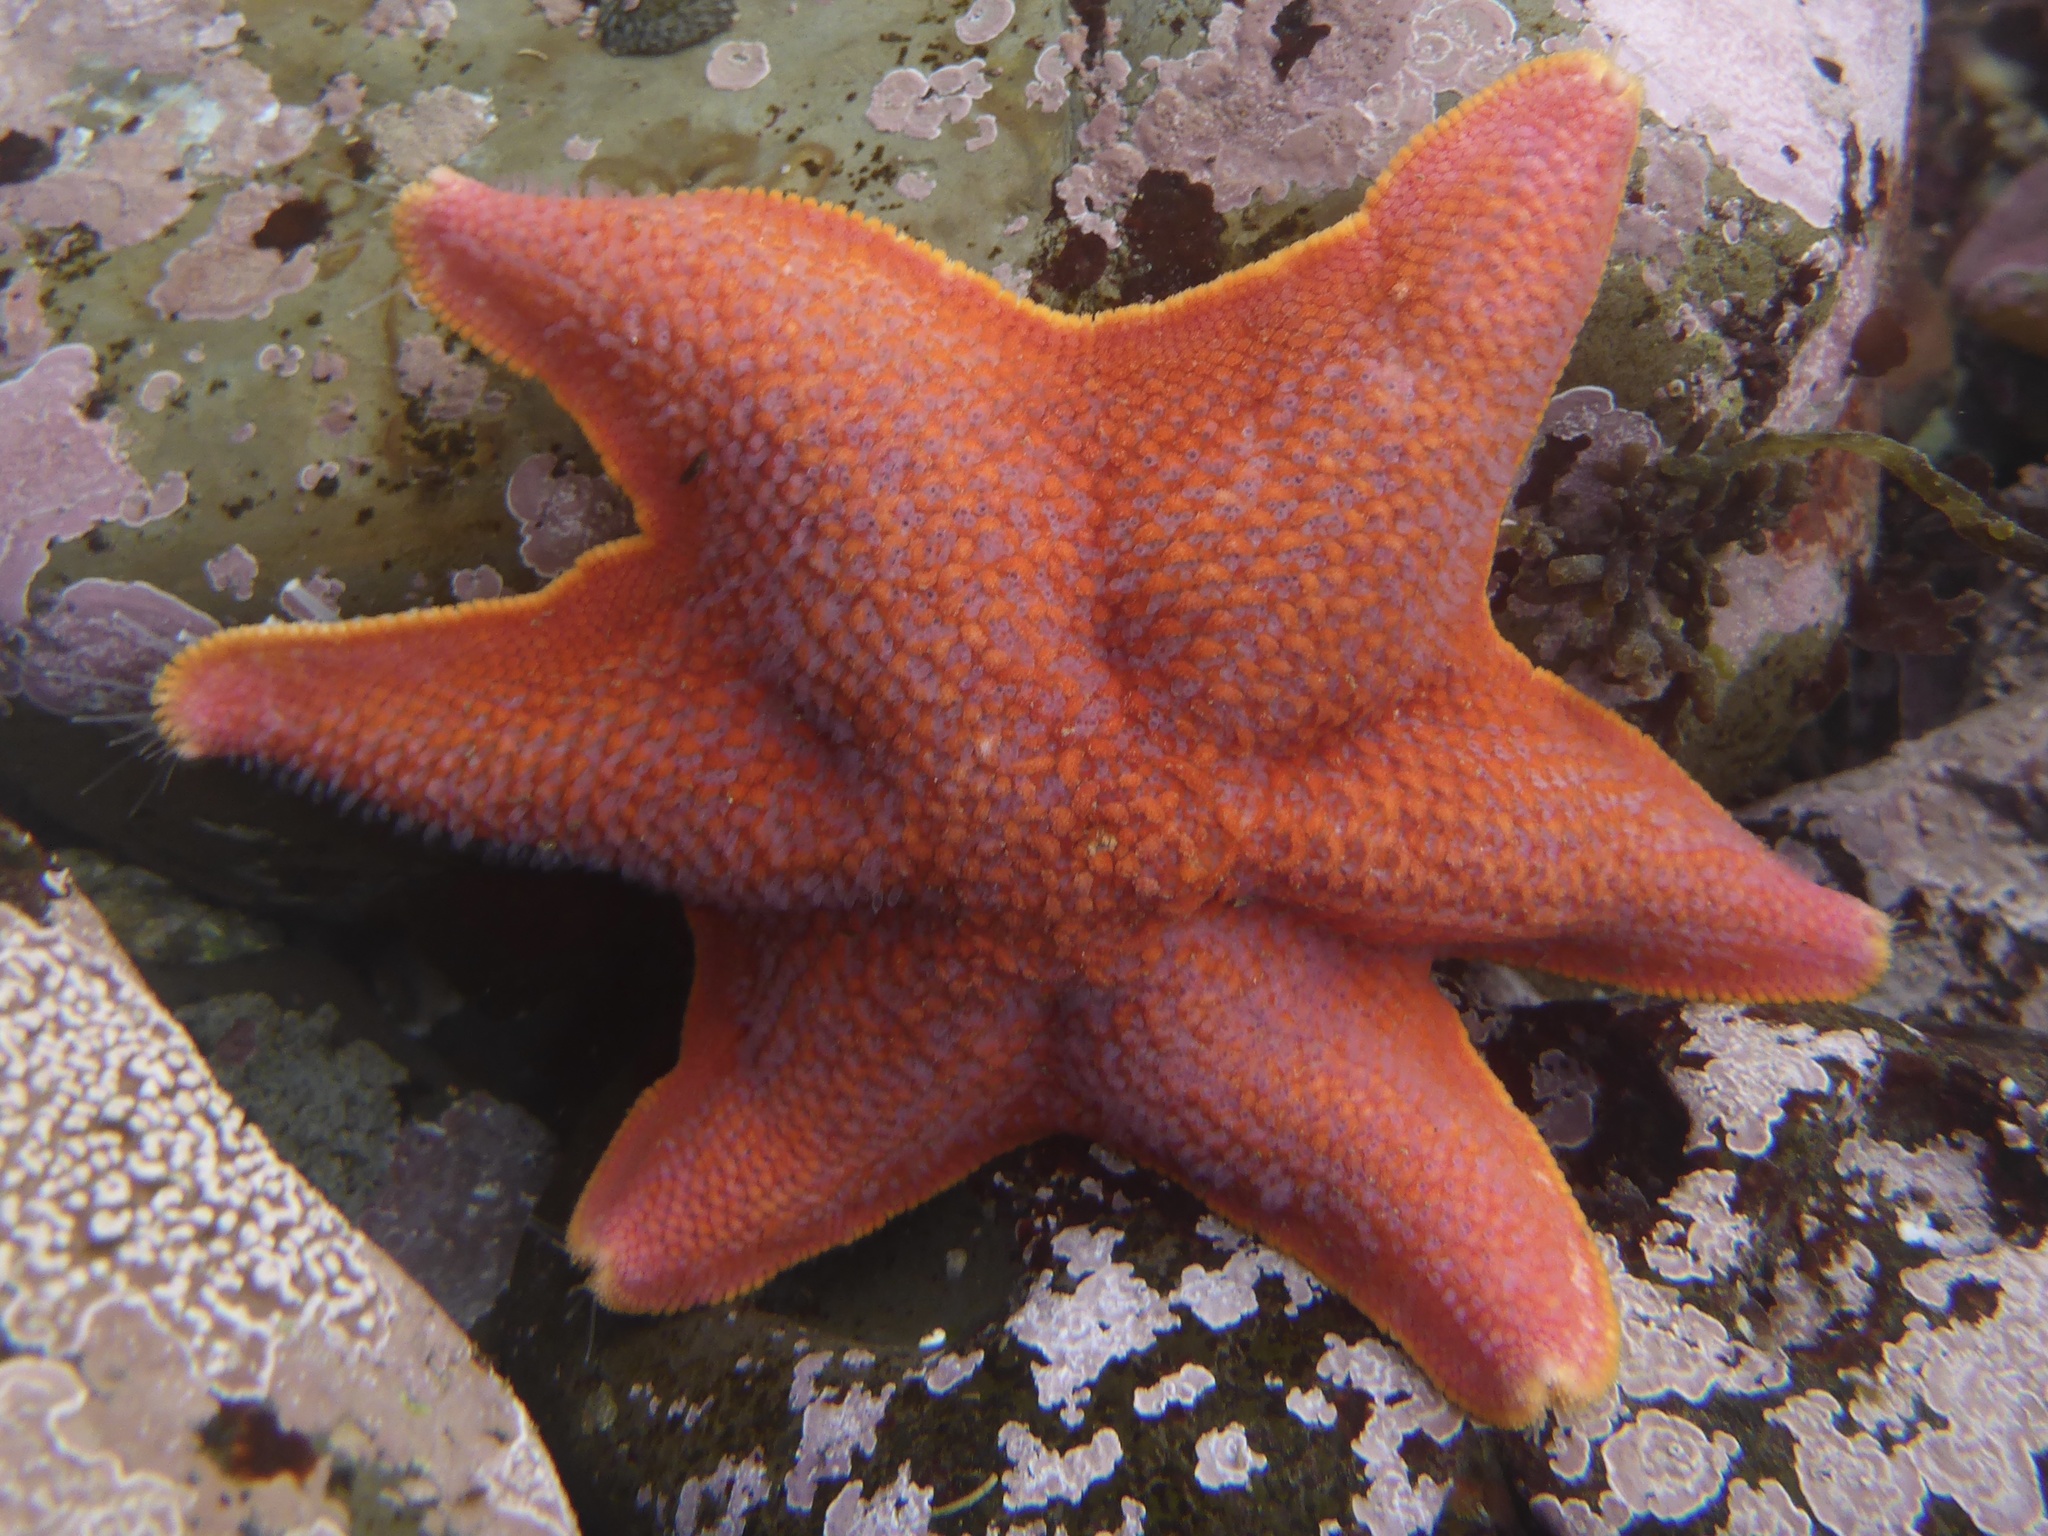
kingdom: Animalia
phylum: Echinodermata
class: Asteroidea
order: Valvatida
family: Asterinidae
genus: Patiria
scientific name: Patiria miniata
